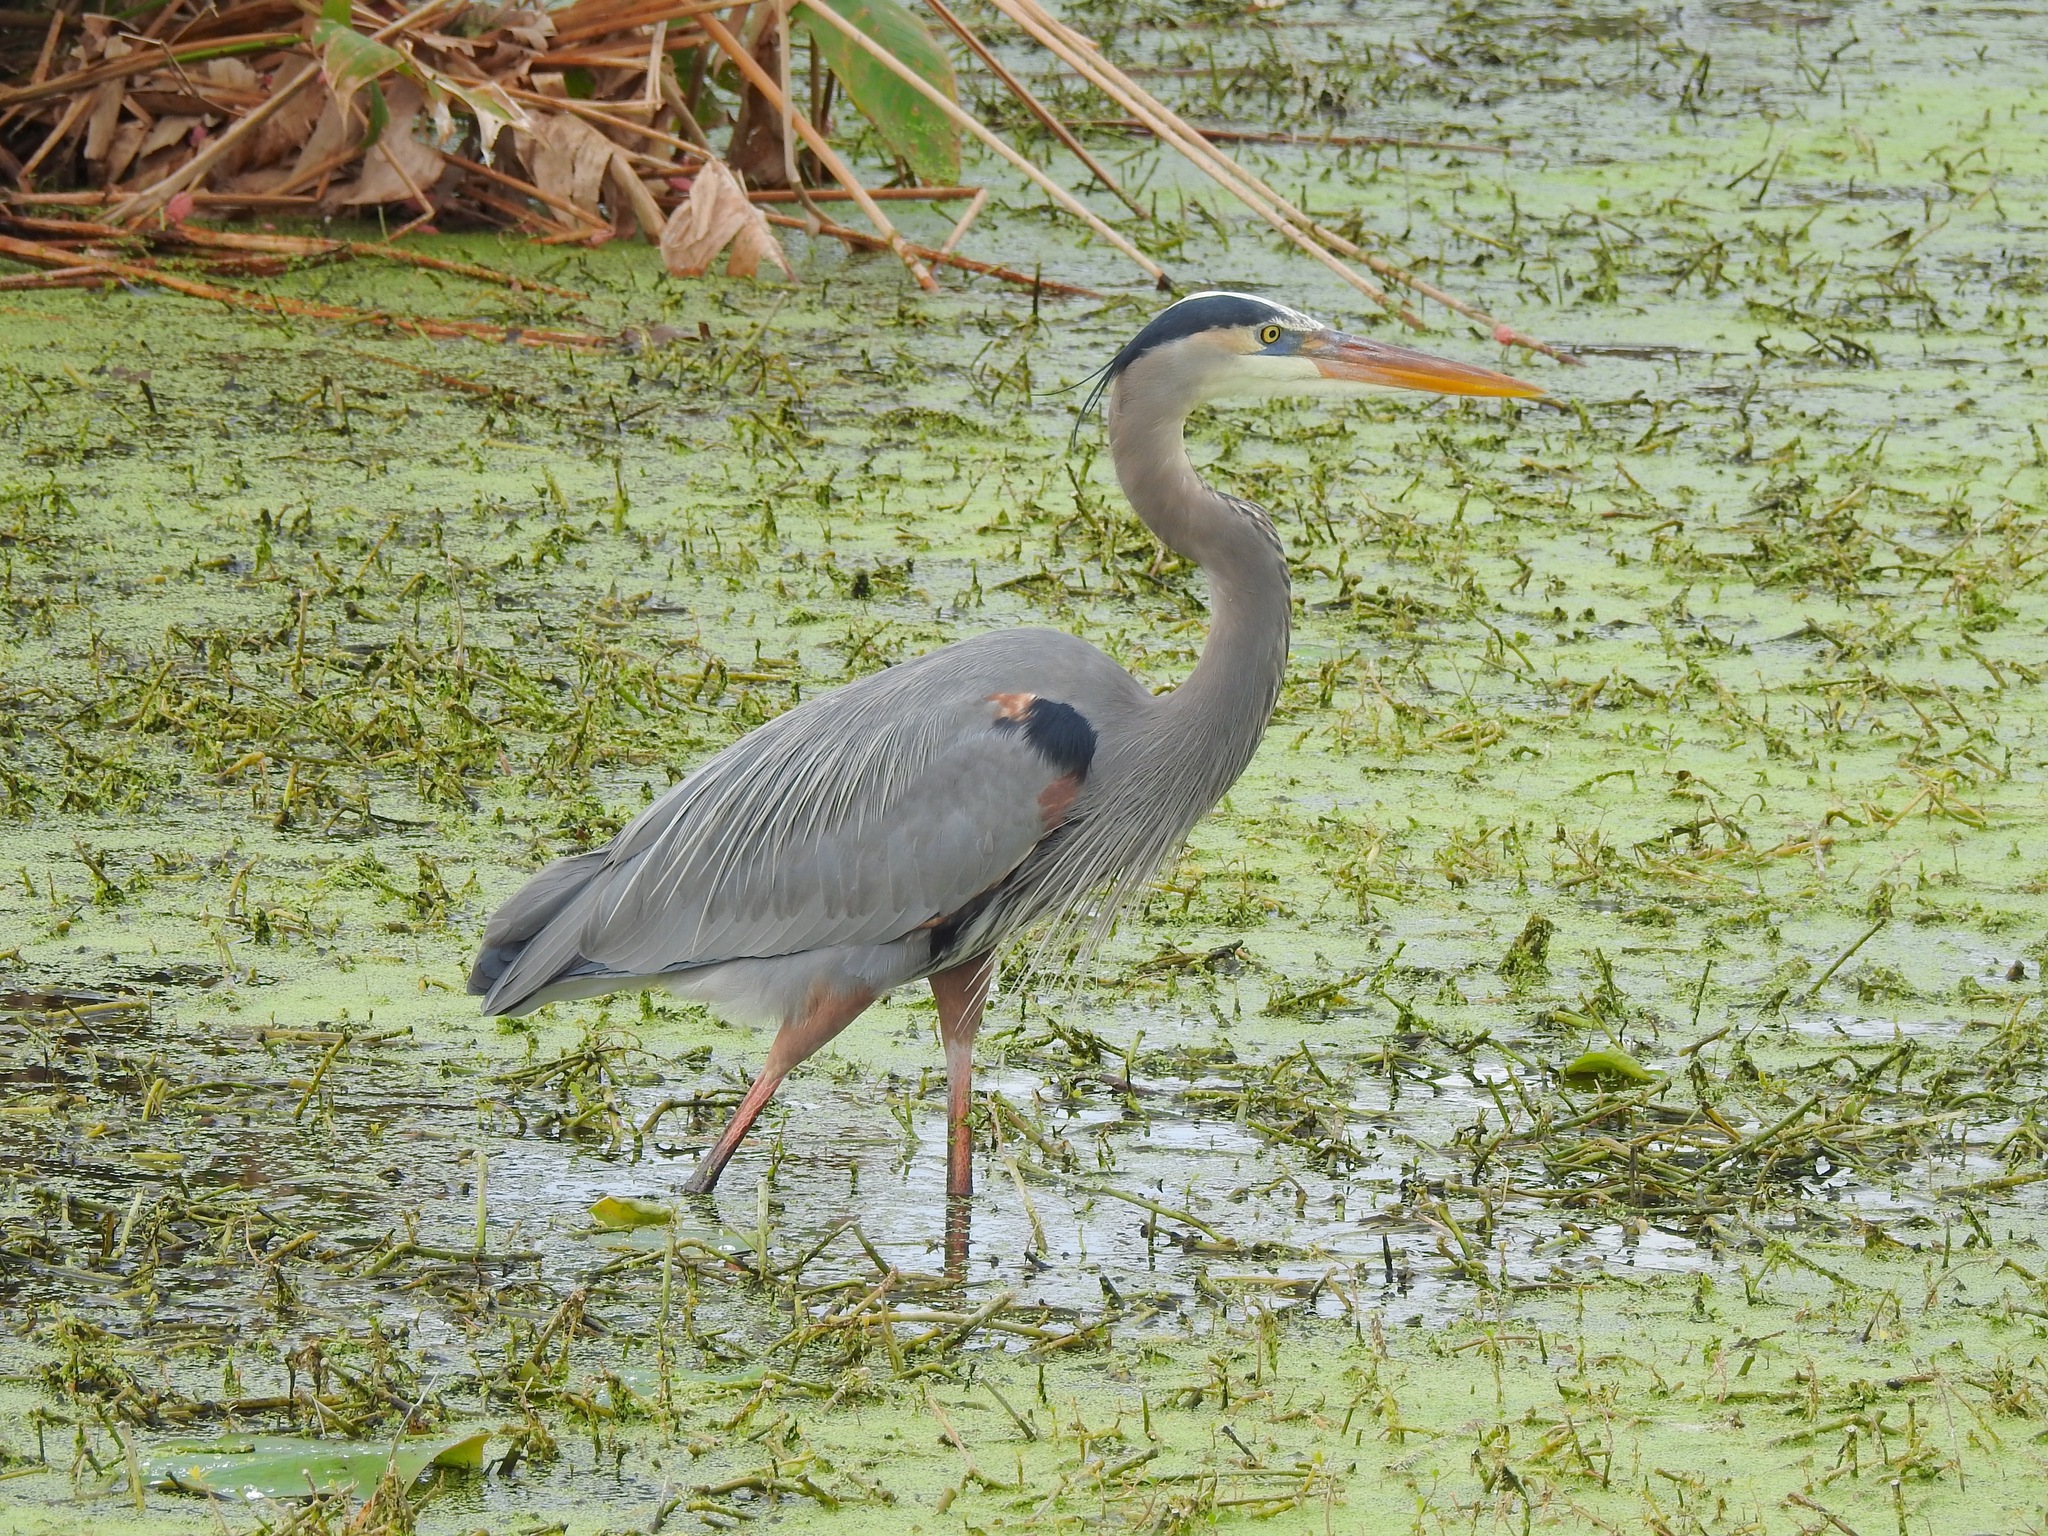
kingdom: Animalia
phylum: Chordata
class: Aves
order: Pelecaniformes
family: Ardeidae
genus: Ardea
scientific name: Ardea herodias
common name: Great blue heron
